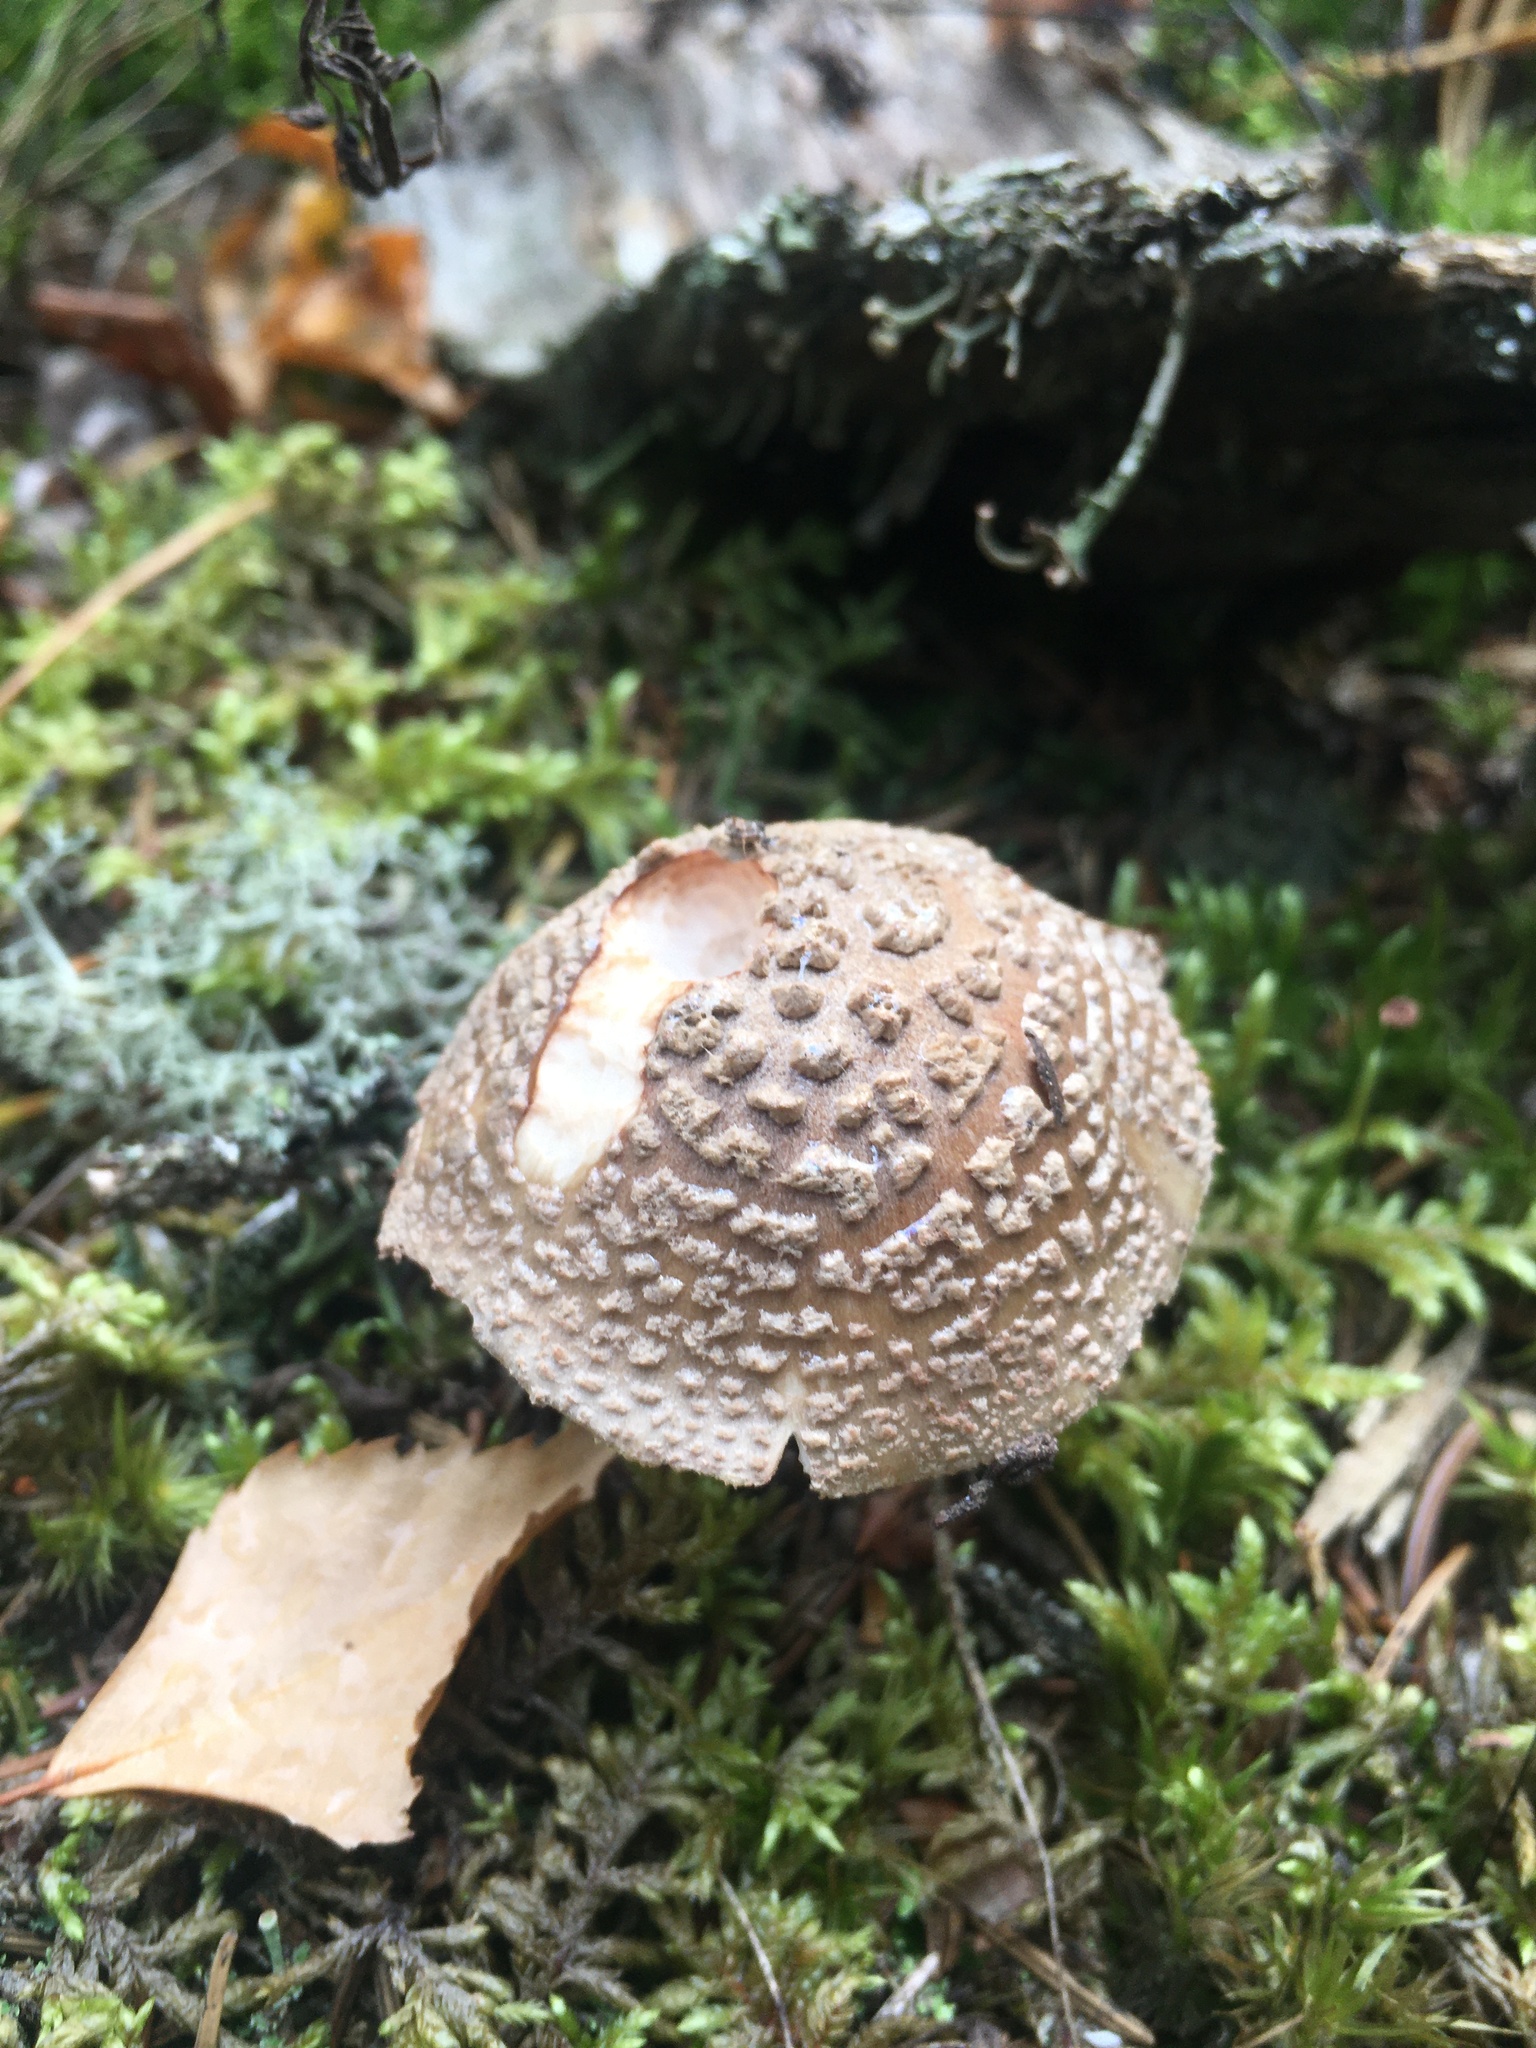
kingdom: Fungi
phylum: Basidiomycota
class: Agaricomycetes
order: Agaricales
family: Amanitaceae
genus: Amanita
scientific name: Amanita rubescens
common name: Blusher
